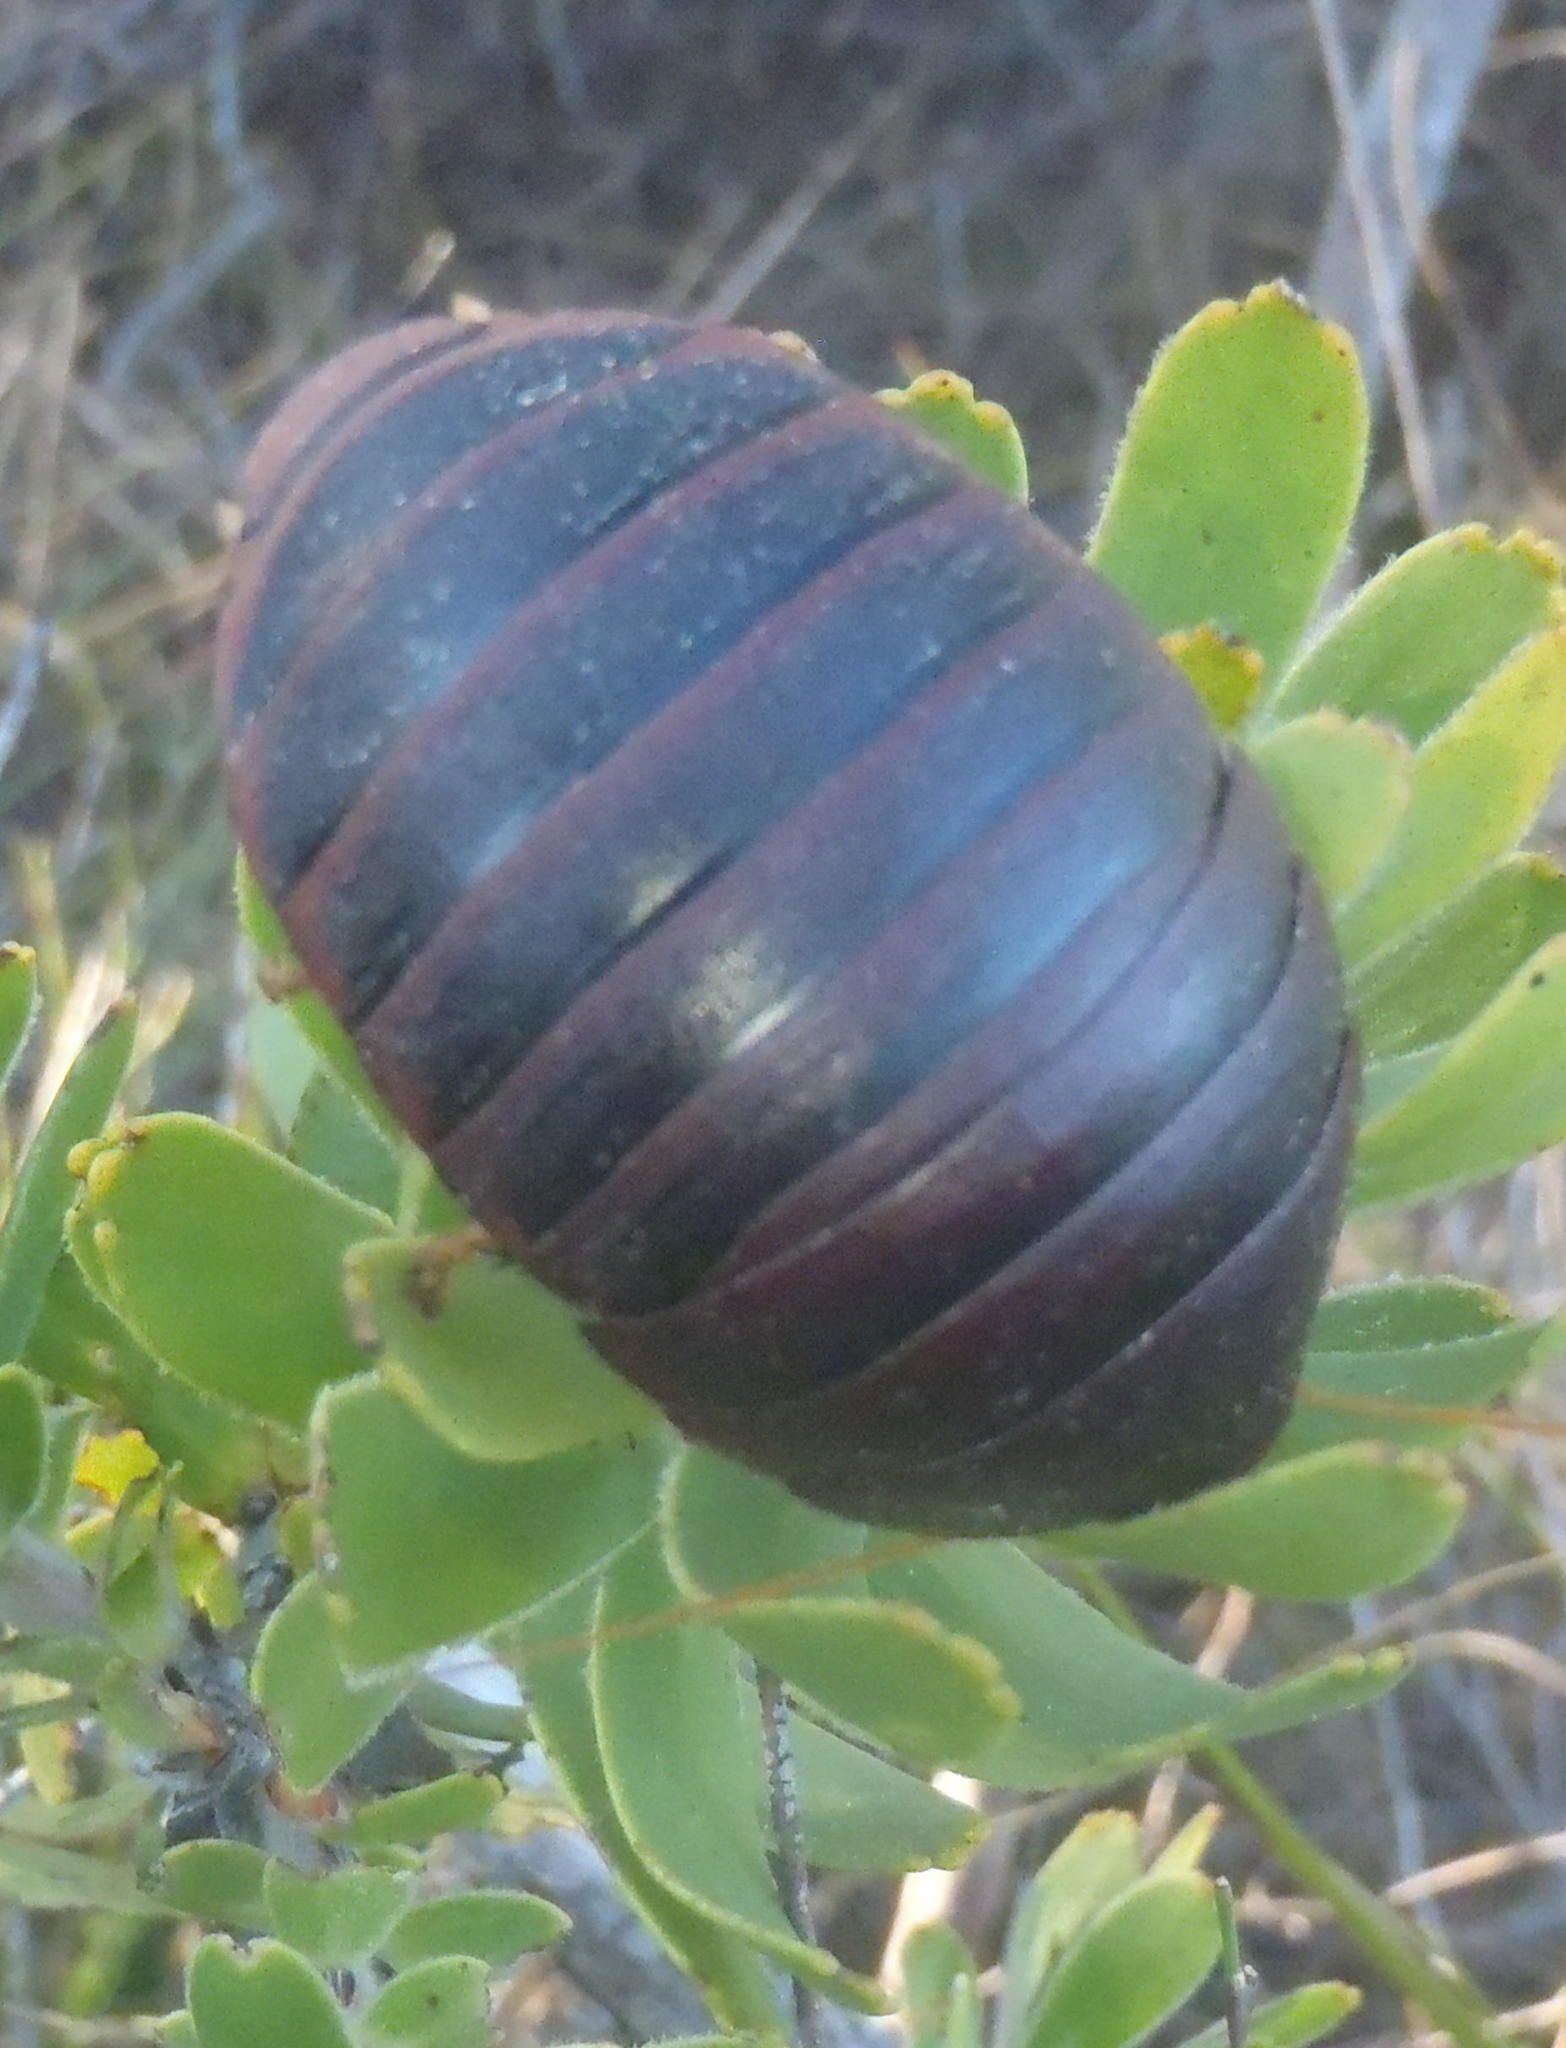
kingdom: Animalia
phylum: Arthropoda
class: Insecta
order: Blattodea
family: Blaberidae
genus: Aptera
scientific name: Aptera fusca
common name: Cape mountain cockroach
